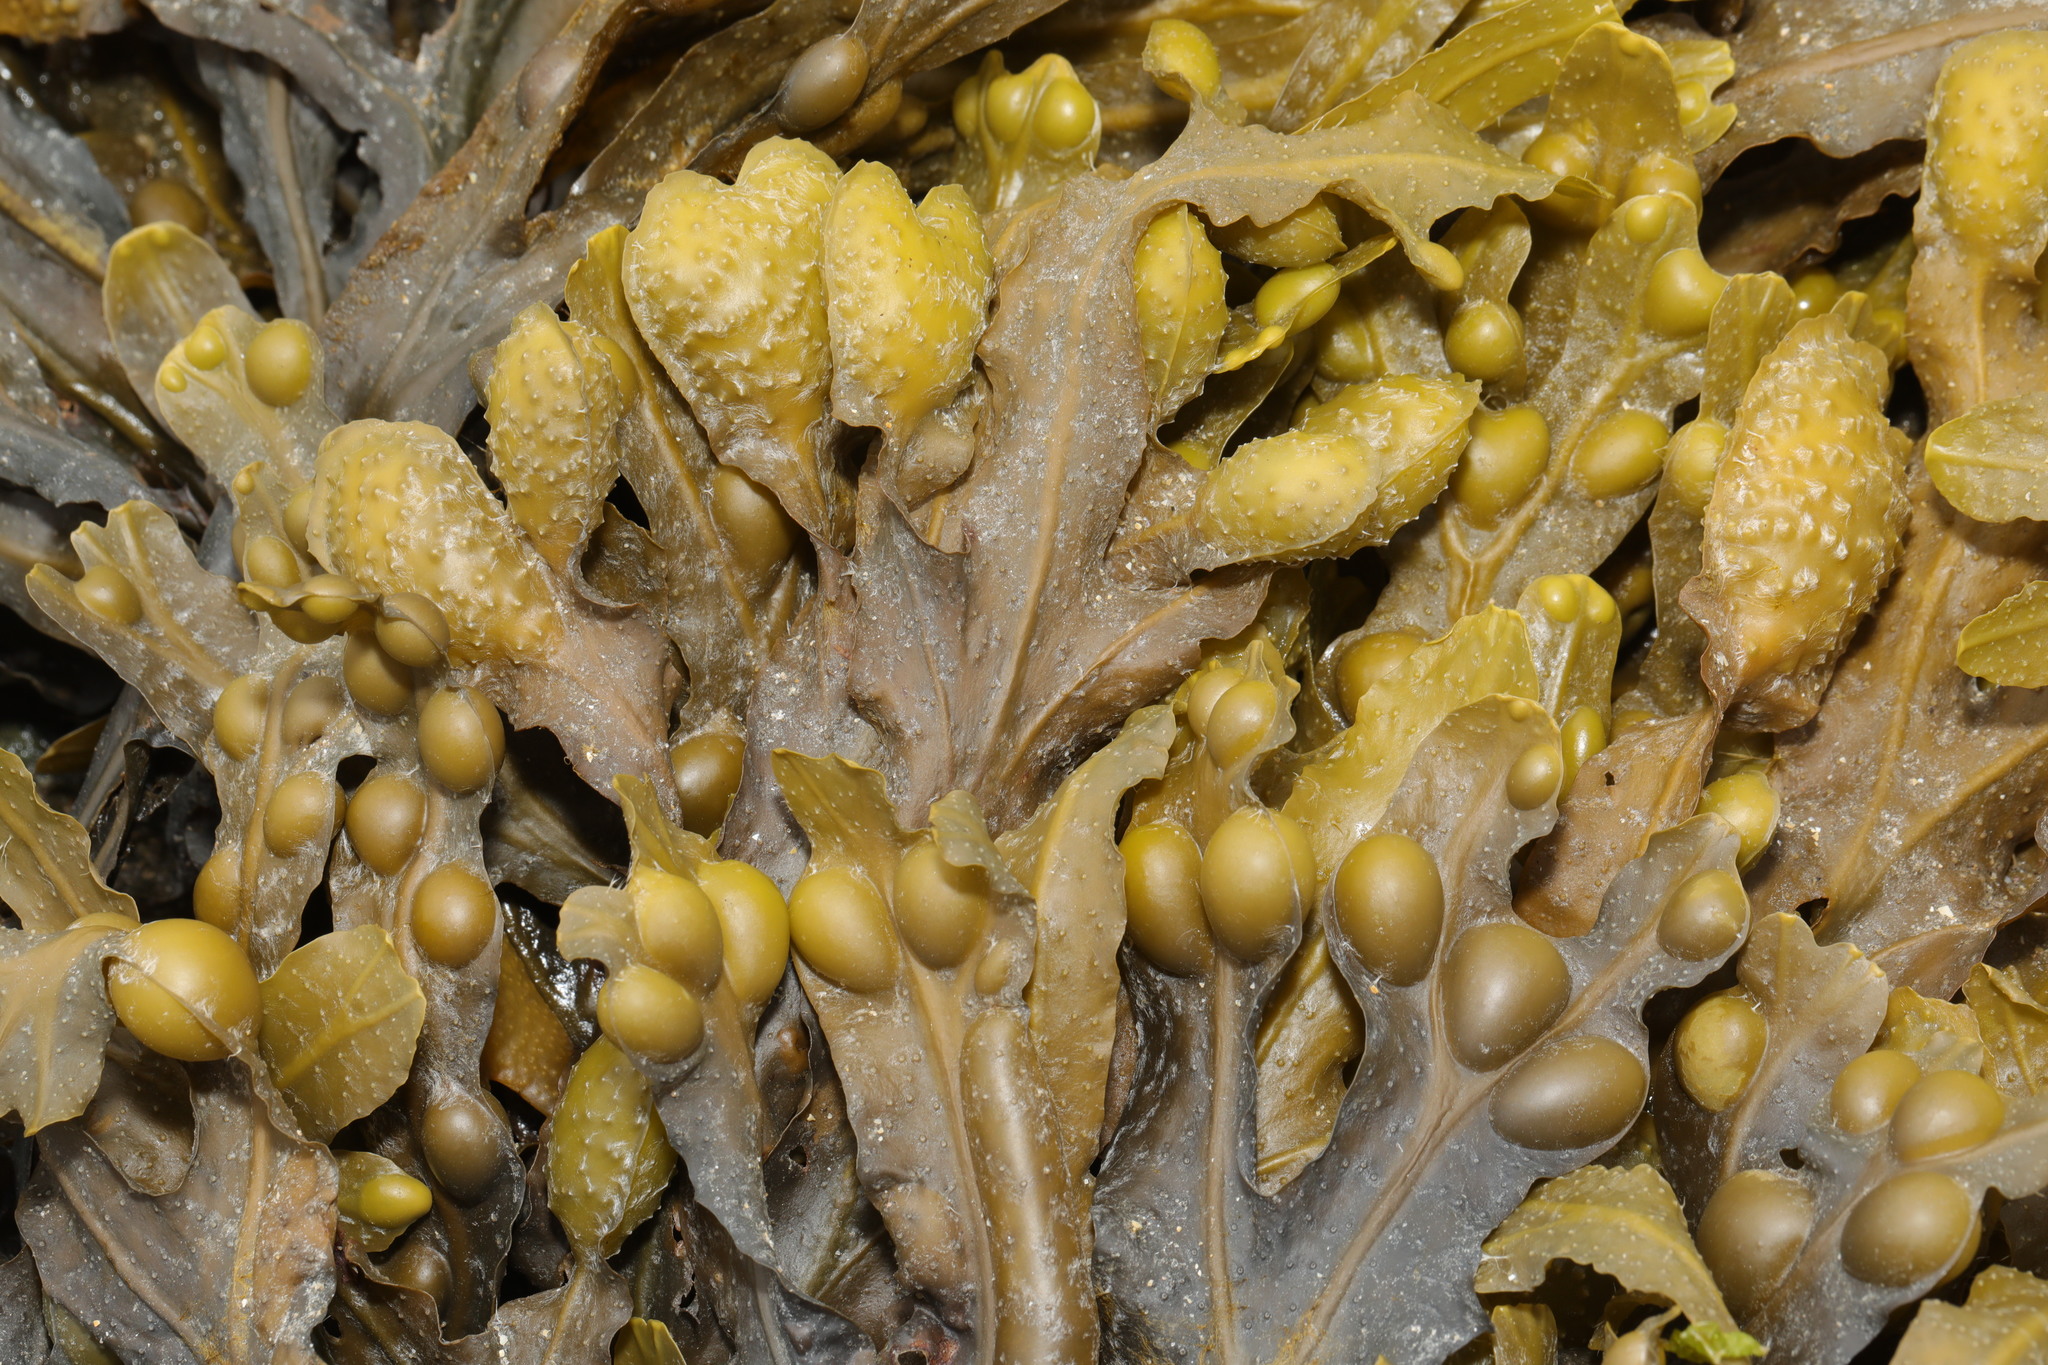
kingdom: Chromista
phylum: Ochrophyta
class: Phaeophyceae
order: Fucales
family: Fucaceae
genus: Fucus
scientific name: Fucus vesiculosus
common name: Bladder wrack
